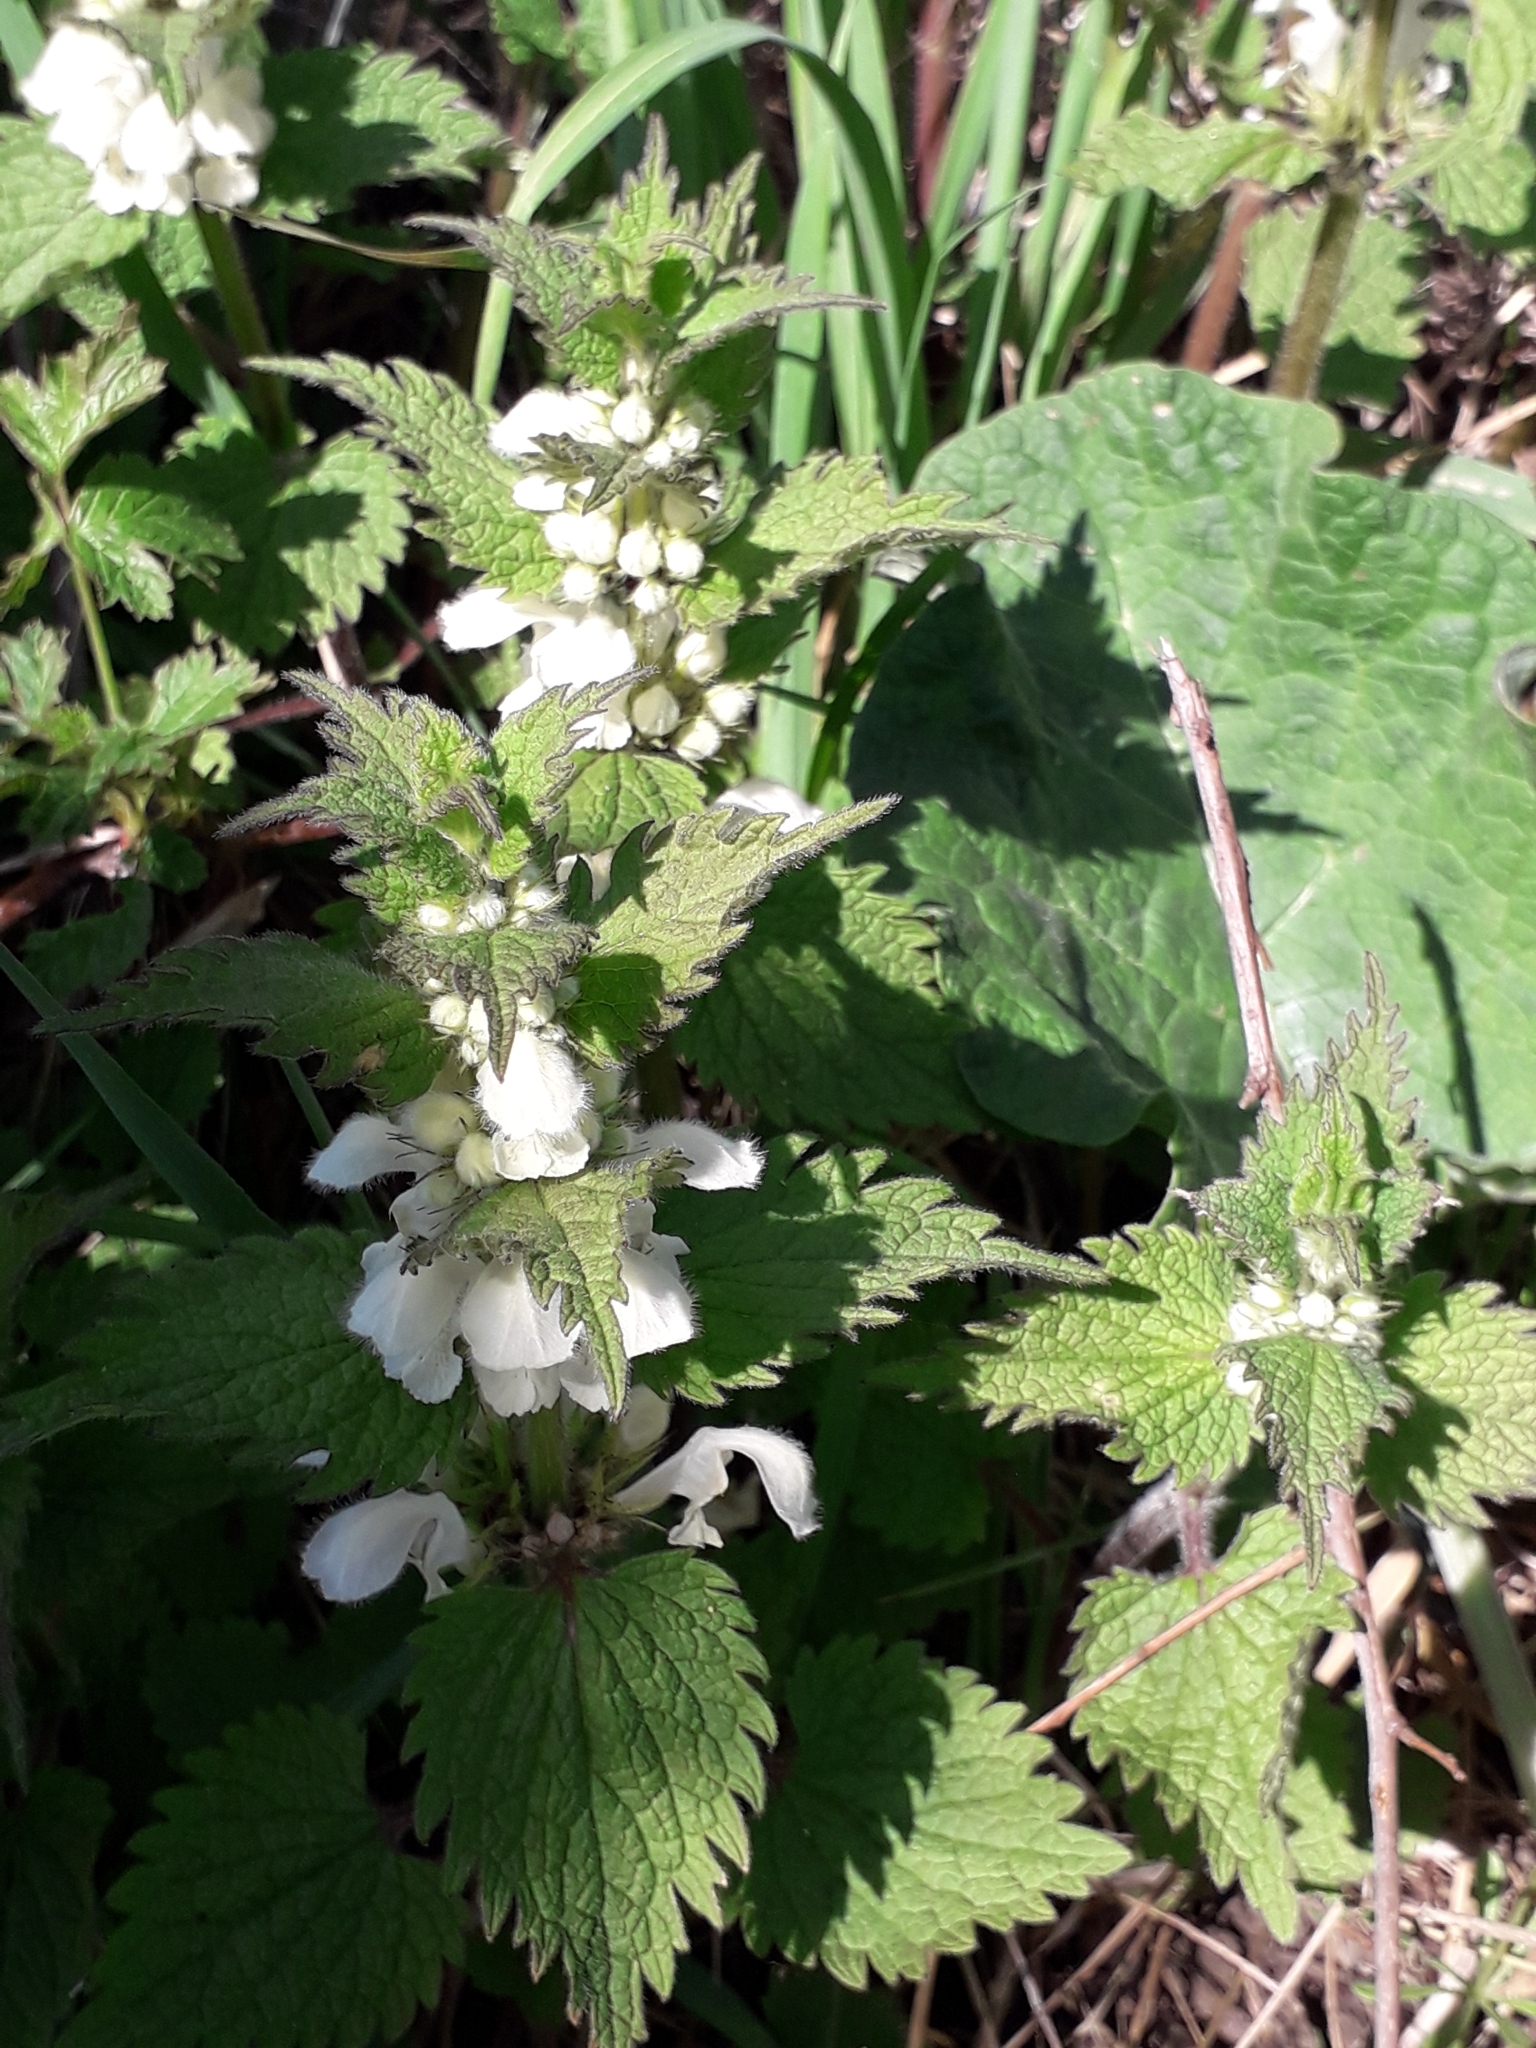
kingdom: Plantae
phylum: Tracheophyta
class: Magnoliopsida
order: Lamiales
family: Lamiaceae
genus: Lamium
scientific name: Lamium album
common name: White dead-nettle
